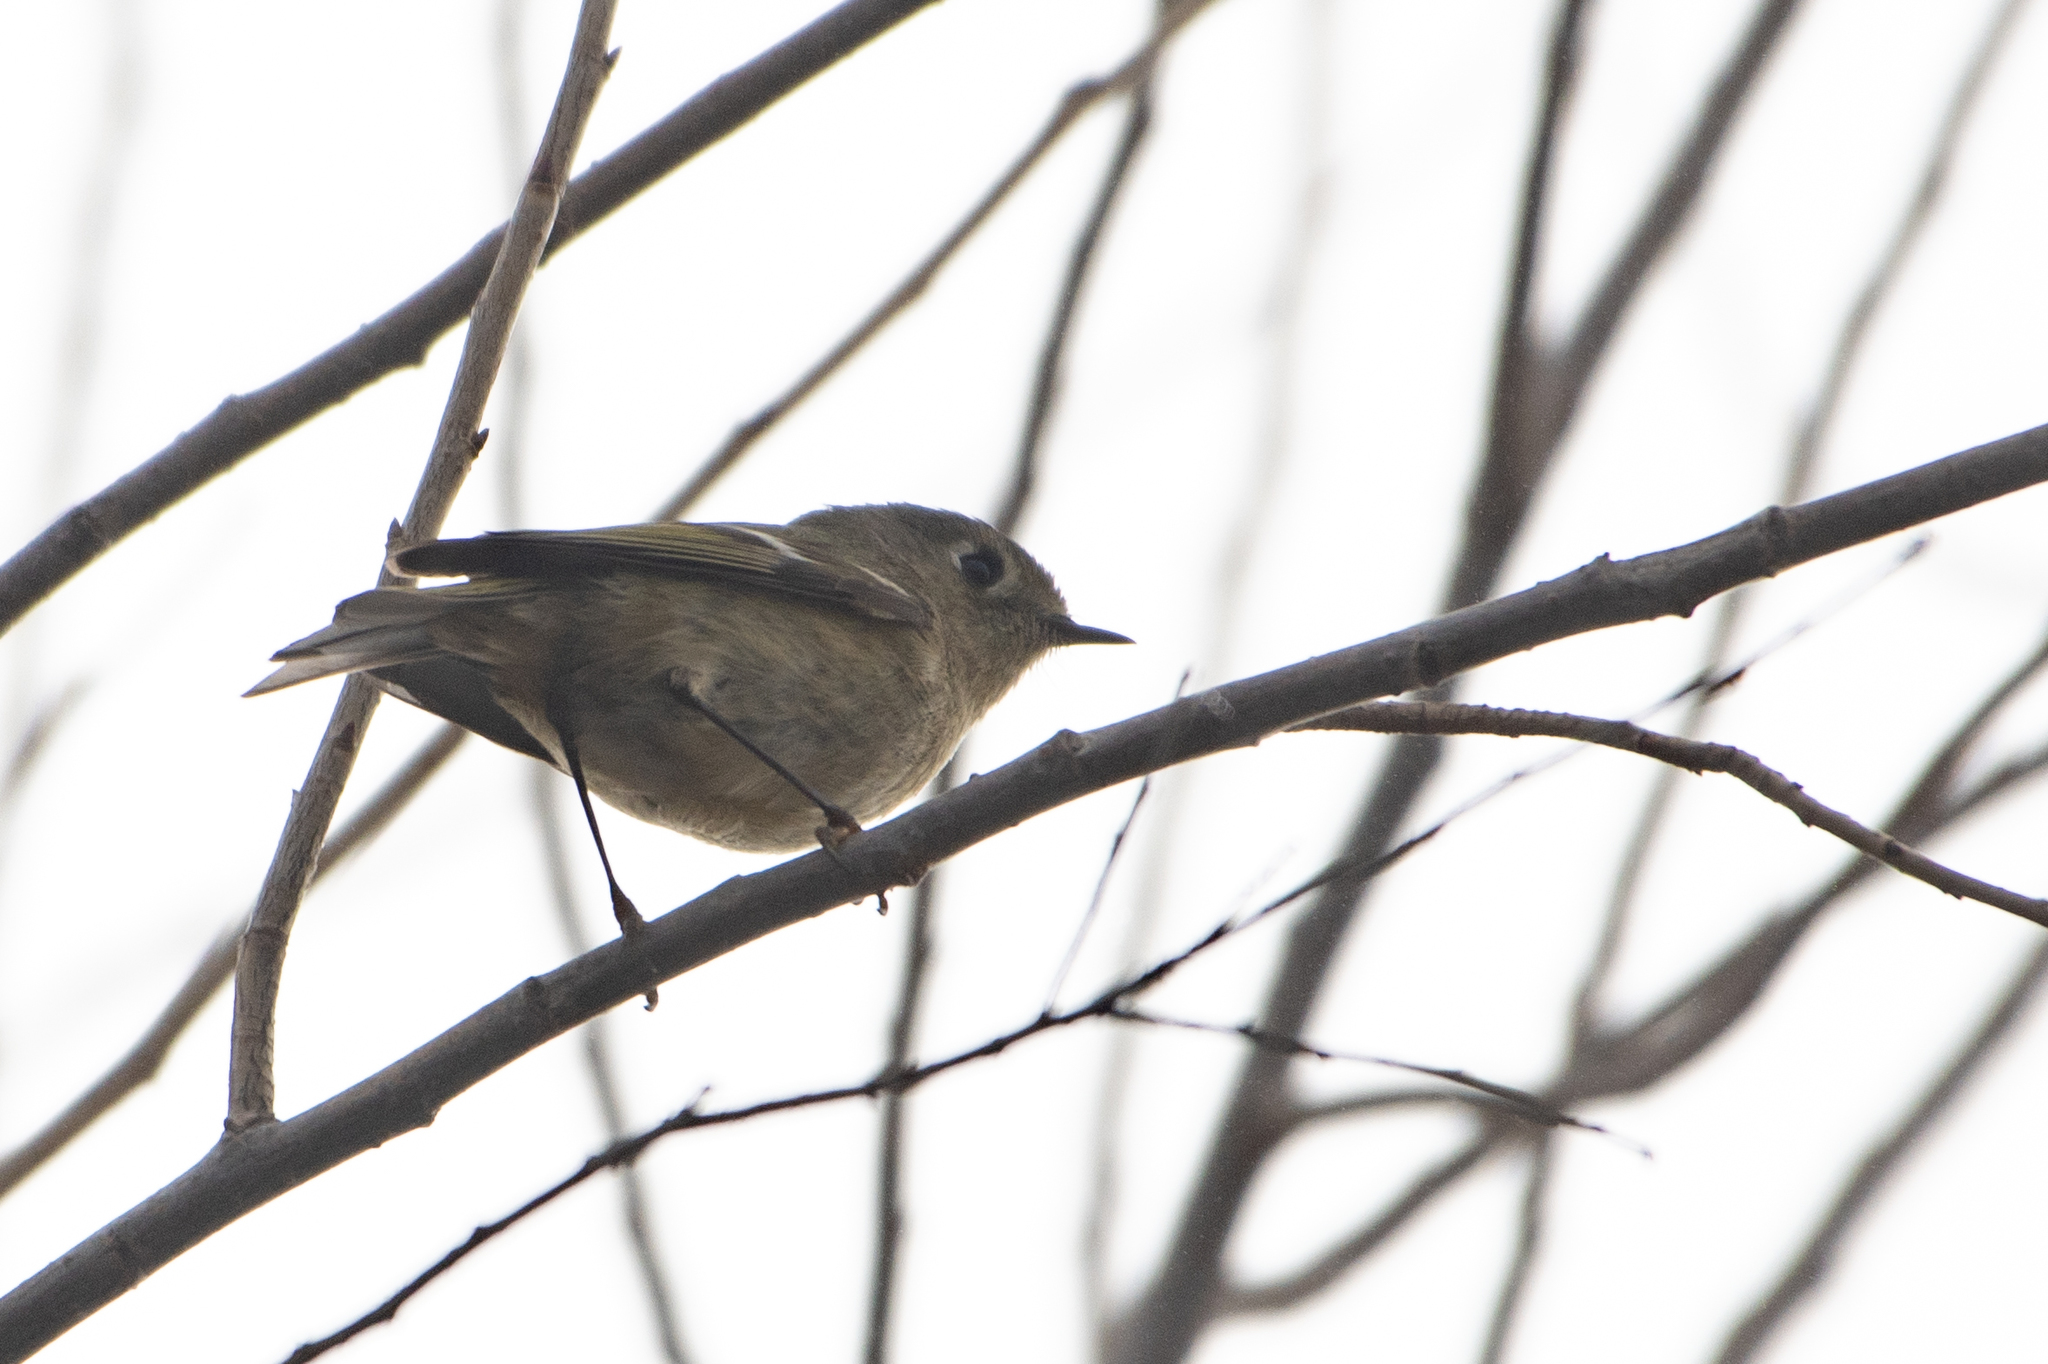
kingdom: Animalia
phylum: Chordata
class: Aves
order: Passeriformes
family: Regulidae
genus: Regulus
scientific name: Regulus calendula
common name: Ruby-crowned kinglet
